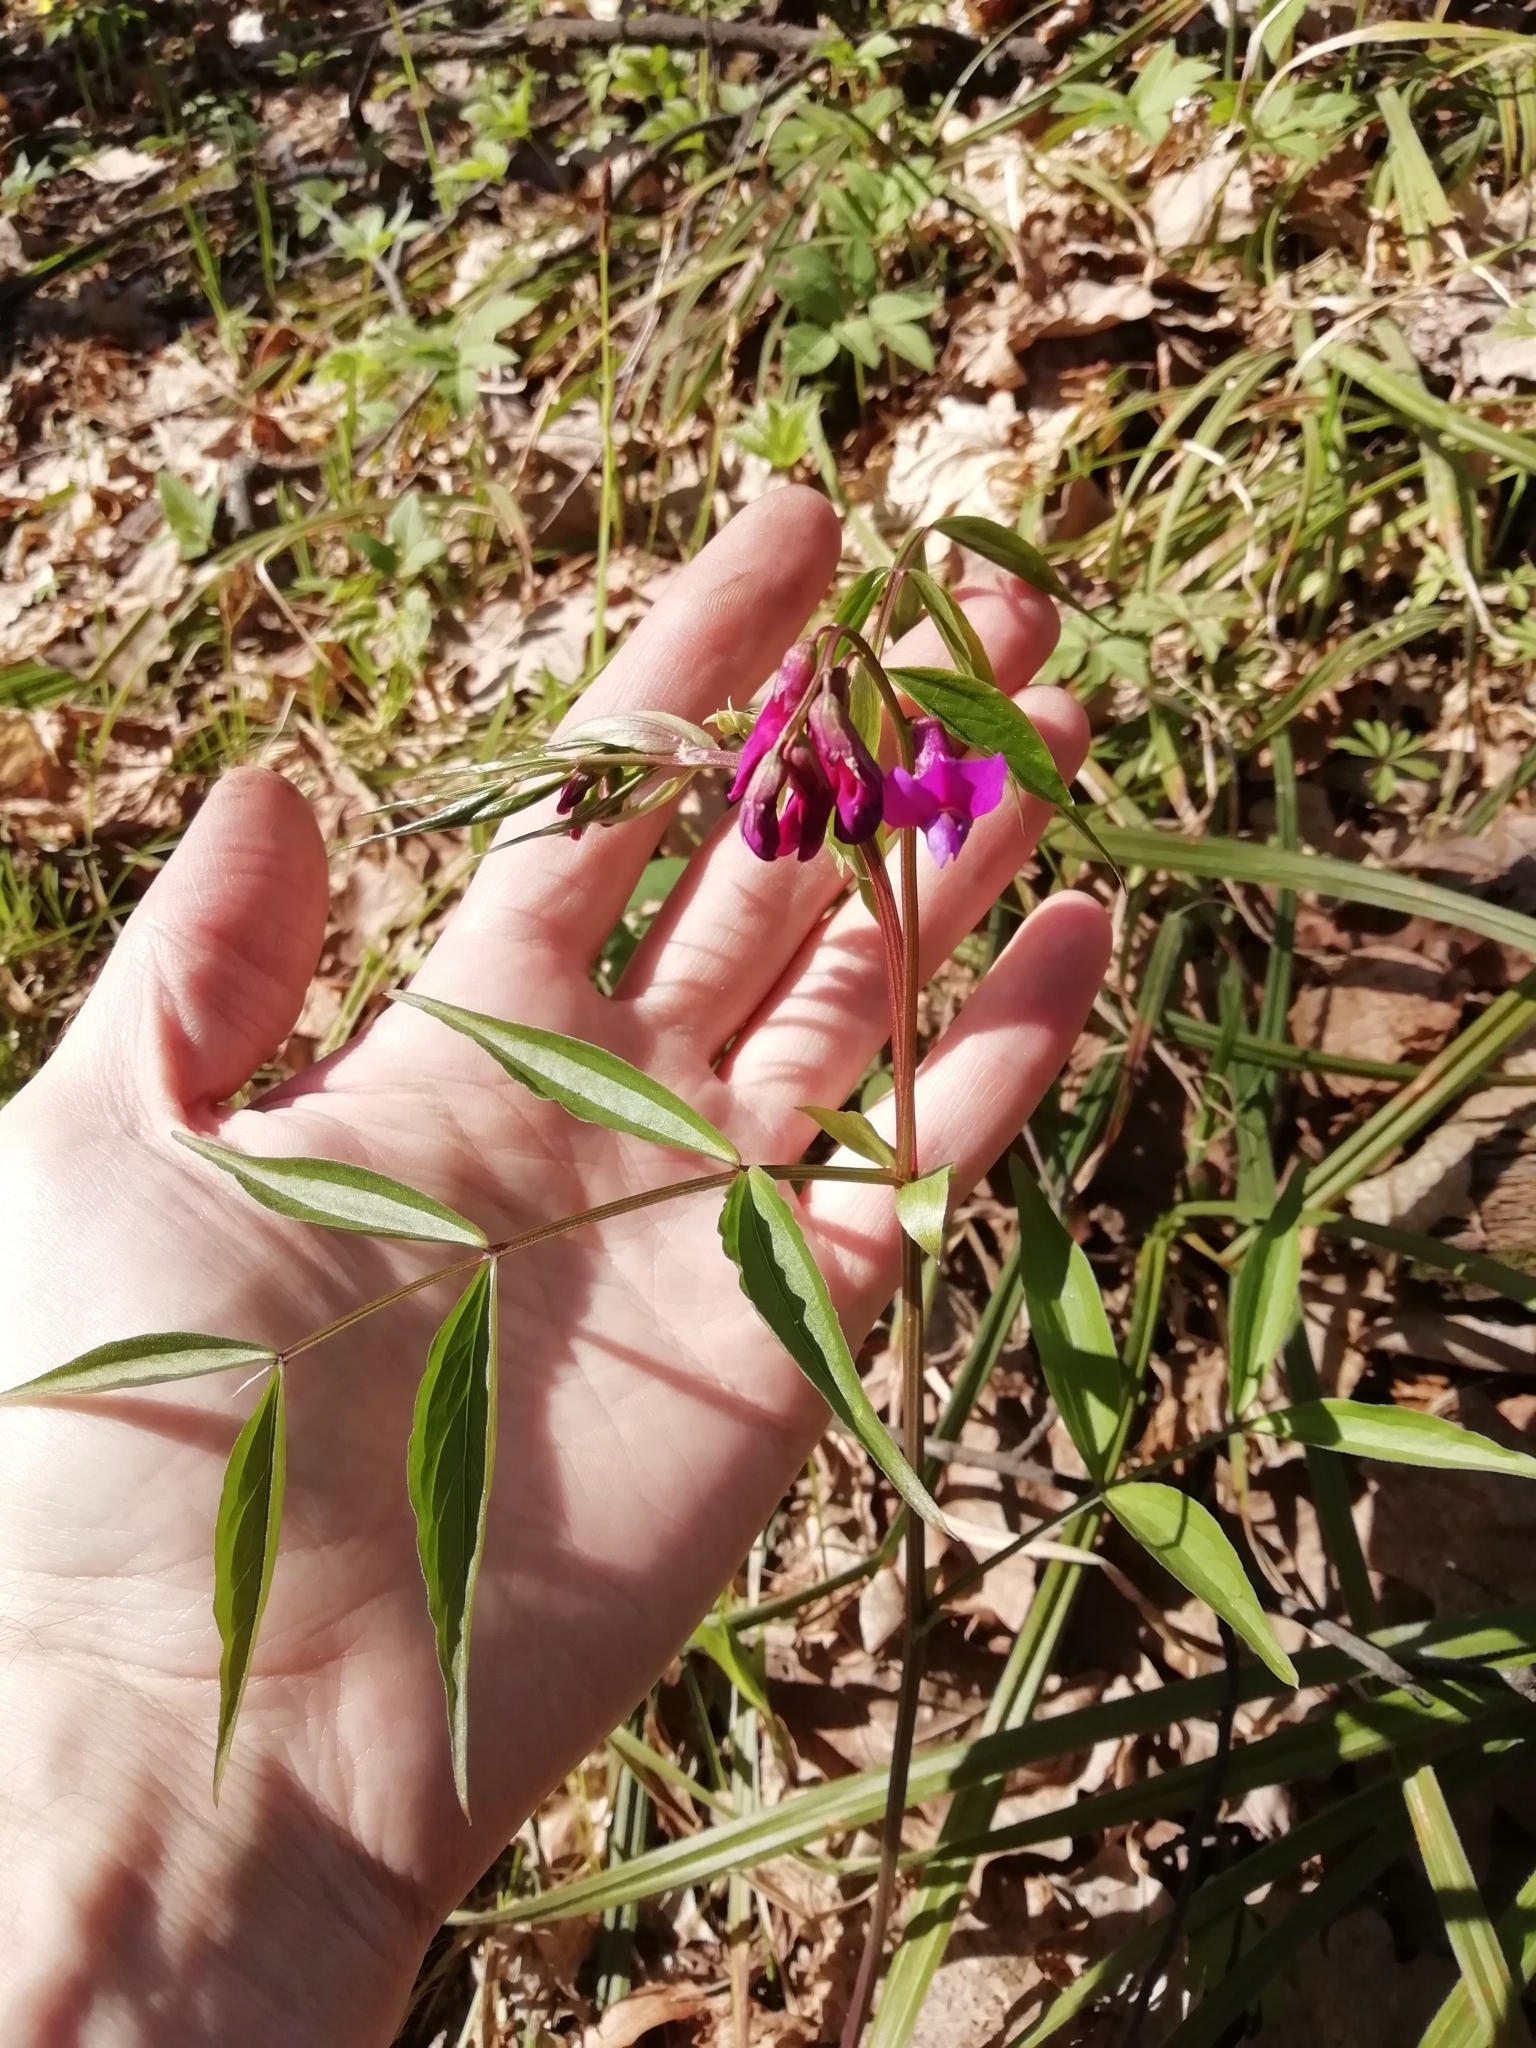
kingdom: Plantae
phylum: Tracheophyta
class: Magnoliopsida
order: Fabales
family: Fabaceae
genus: Lathyrus
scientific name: Lathyrus vernus
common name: Spring pea
